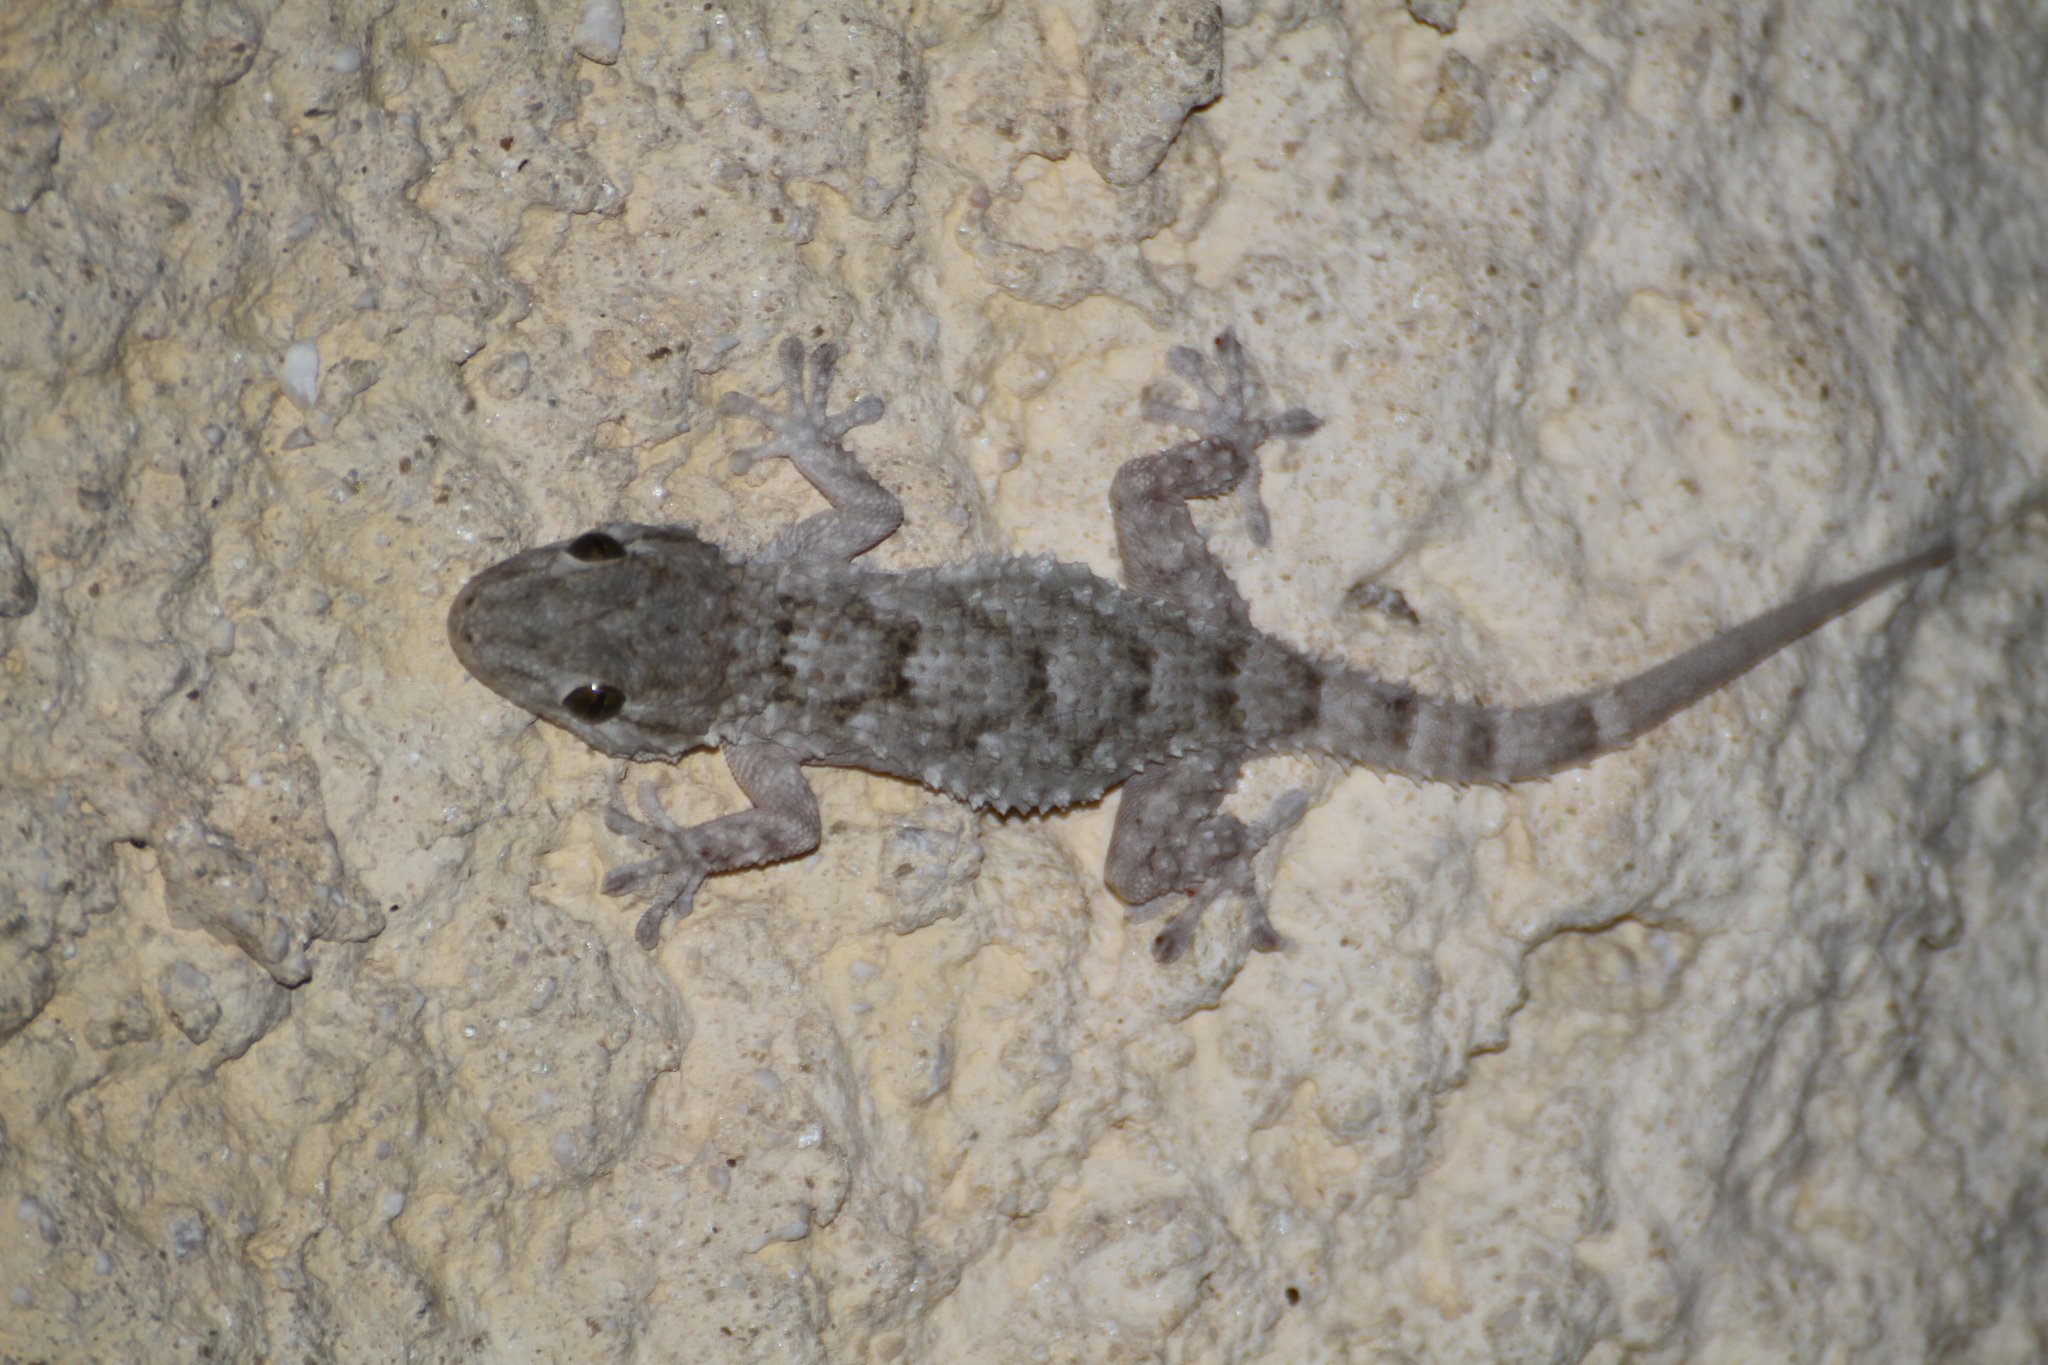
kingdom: Animalia
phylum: Chordata
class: Squamata
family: Phyllodactylidae
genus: Tarentola
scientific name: Tarentola mauritanica
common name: Moorish gecko
